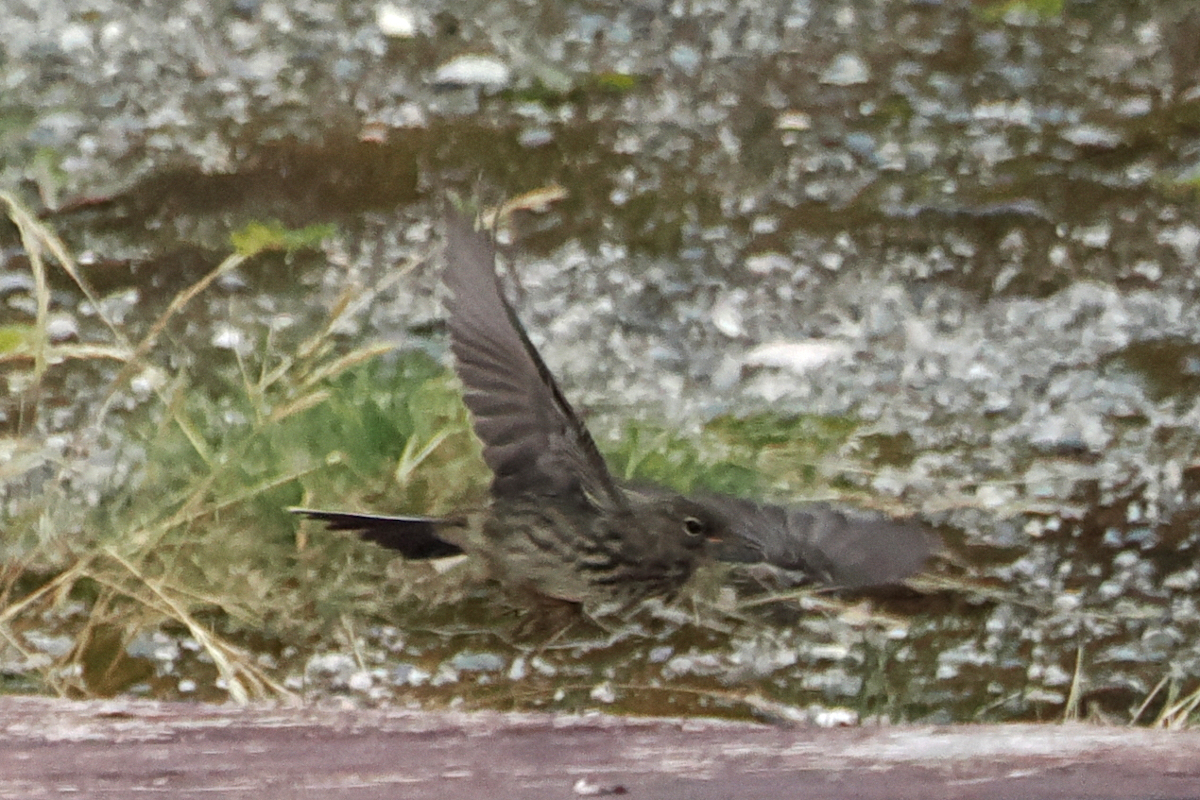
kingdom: Animalia
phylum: Chordata
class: Aves
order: Passeriformes
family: Motacillidae
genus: Anthus
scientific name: Anthus petrosus
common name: Eurasian rock pipit
